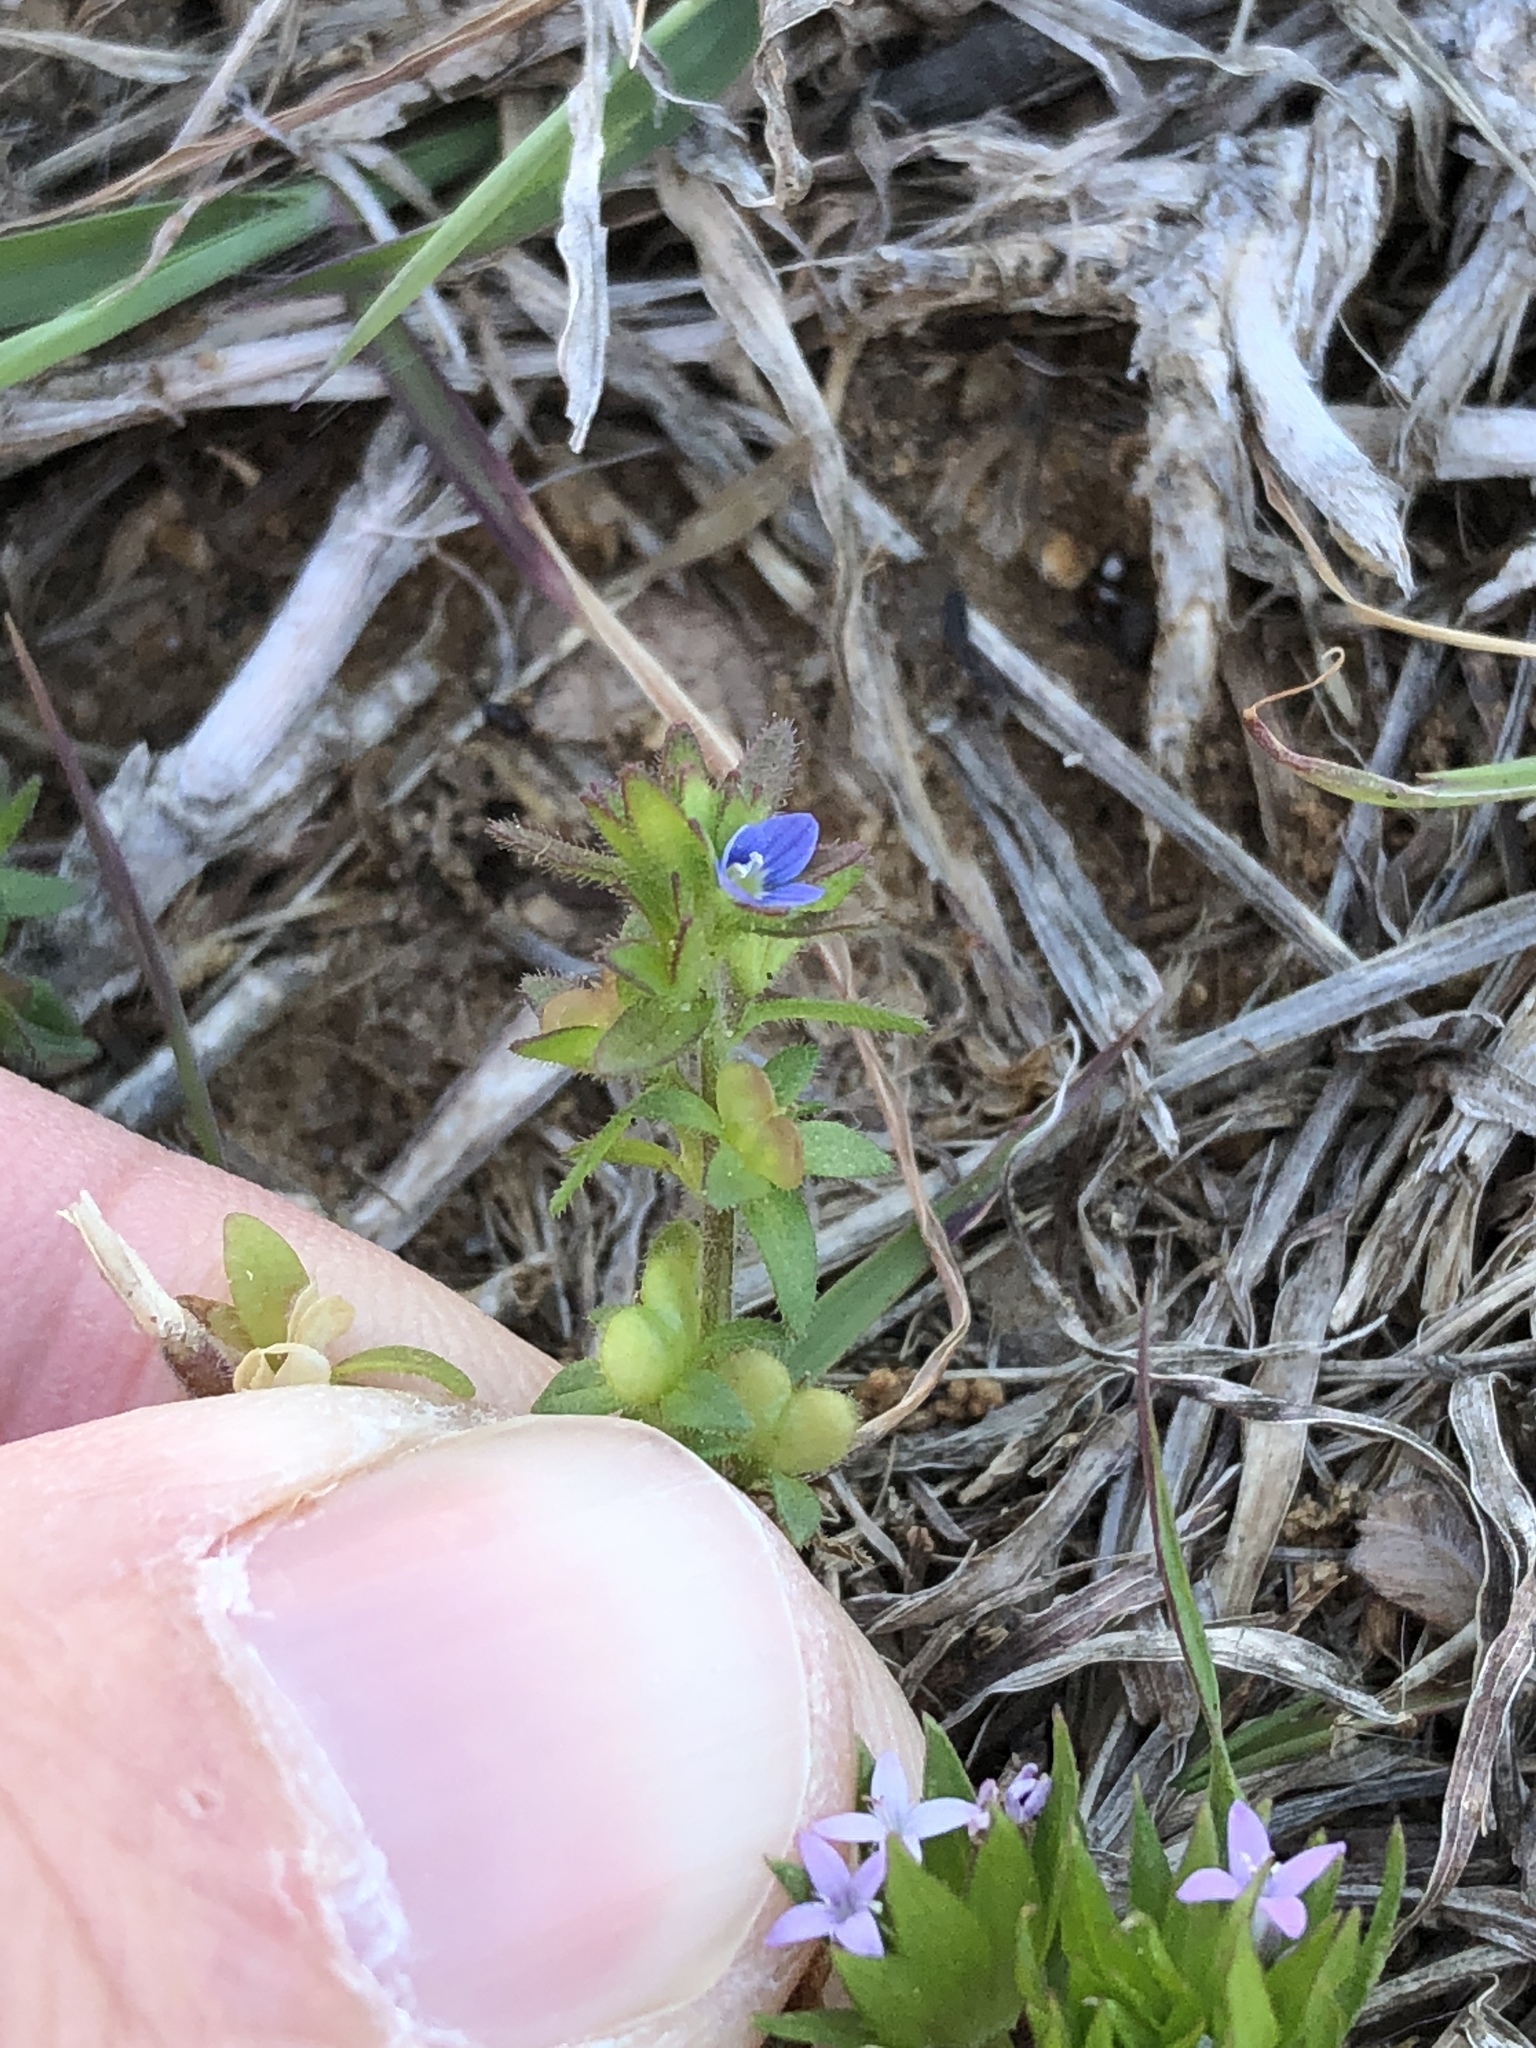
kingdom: Plantae
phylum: Tracheophyta
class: Magnoliopsida
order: Lamiales
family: Plantaginaceae
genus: Veronica
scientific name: Veronica arvensis
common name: Corn speedwell
